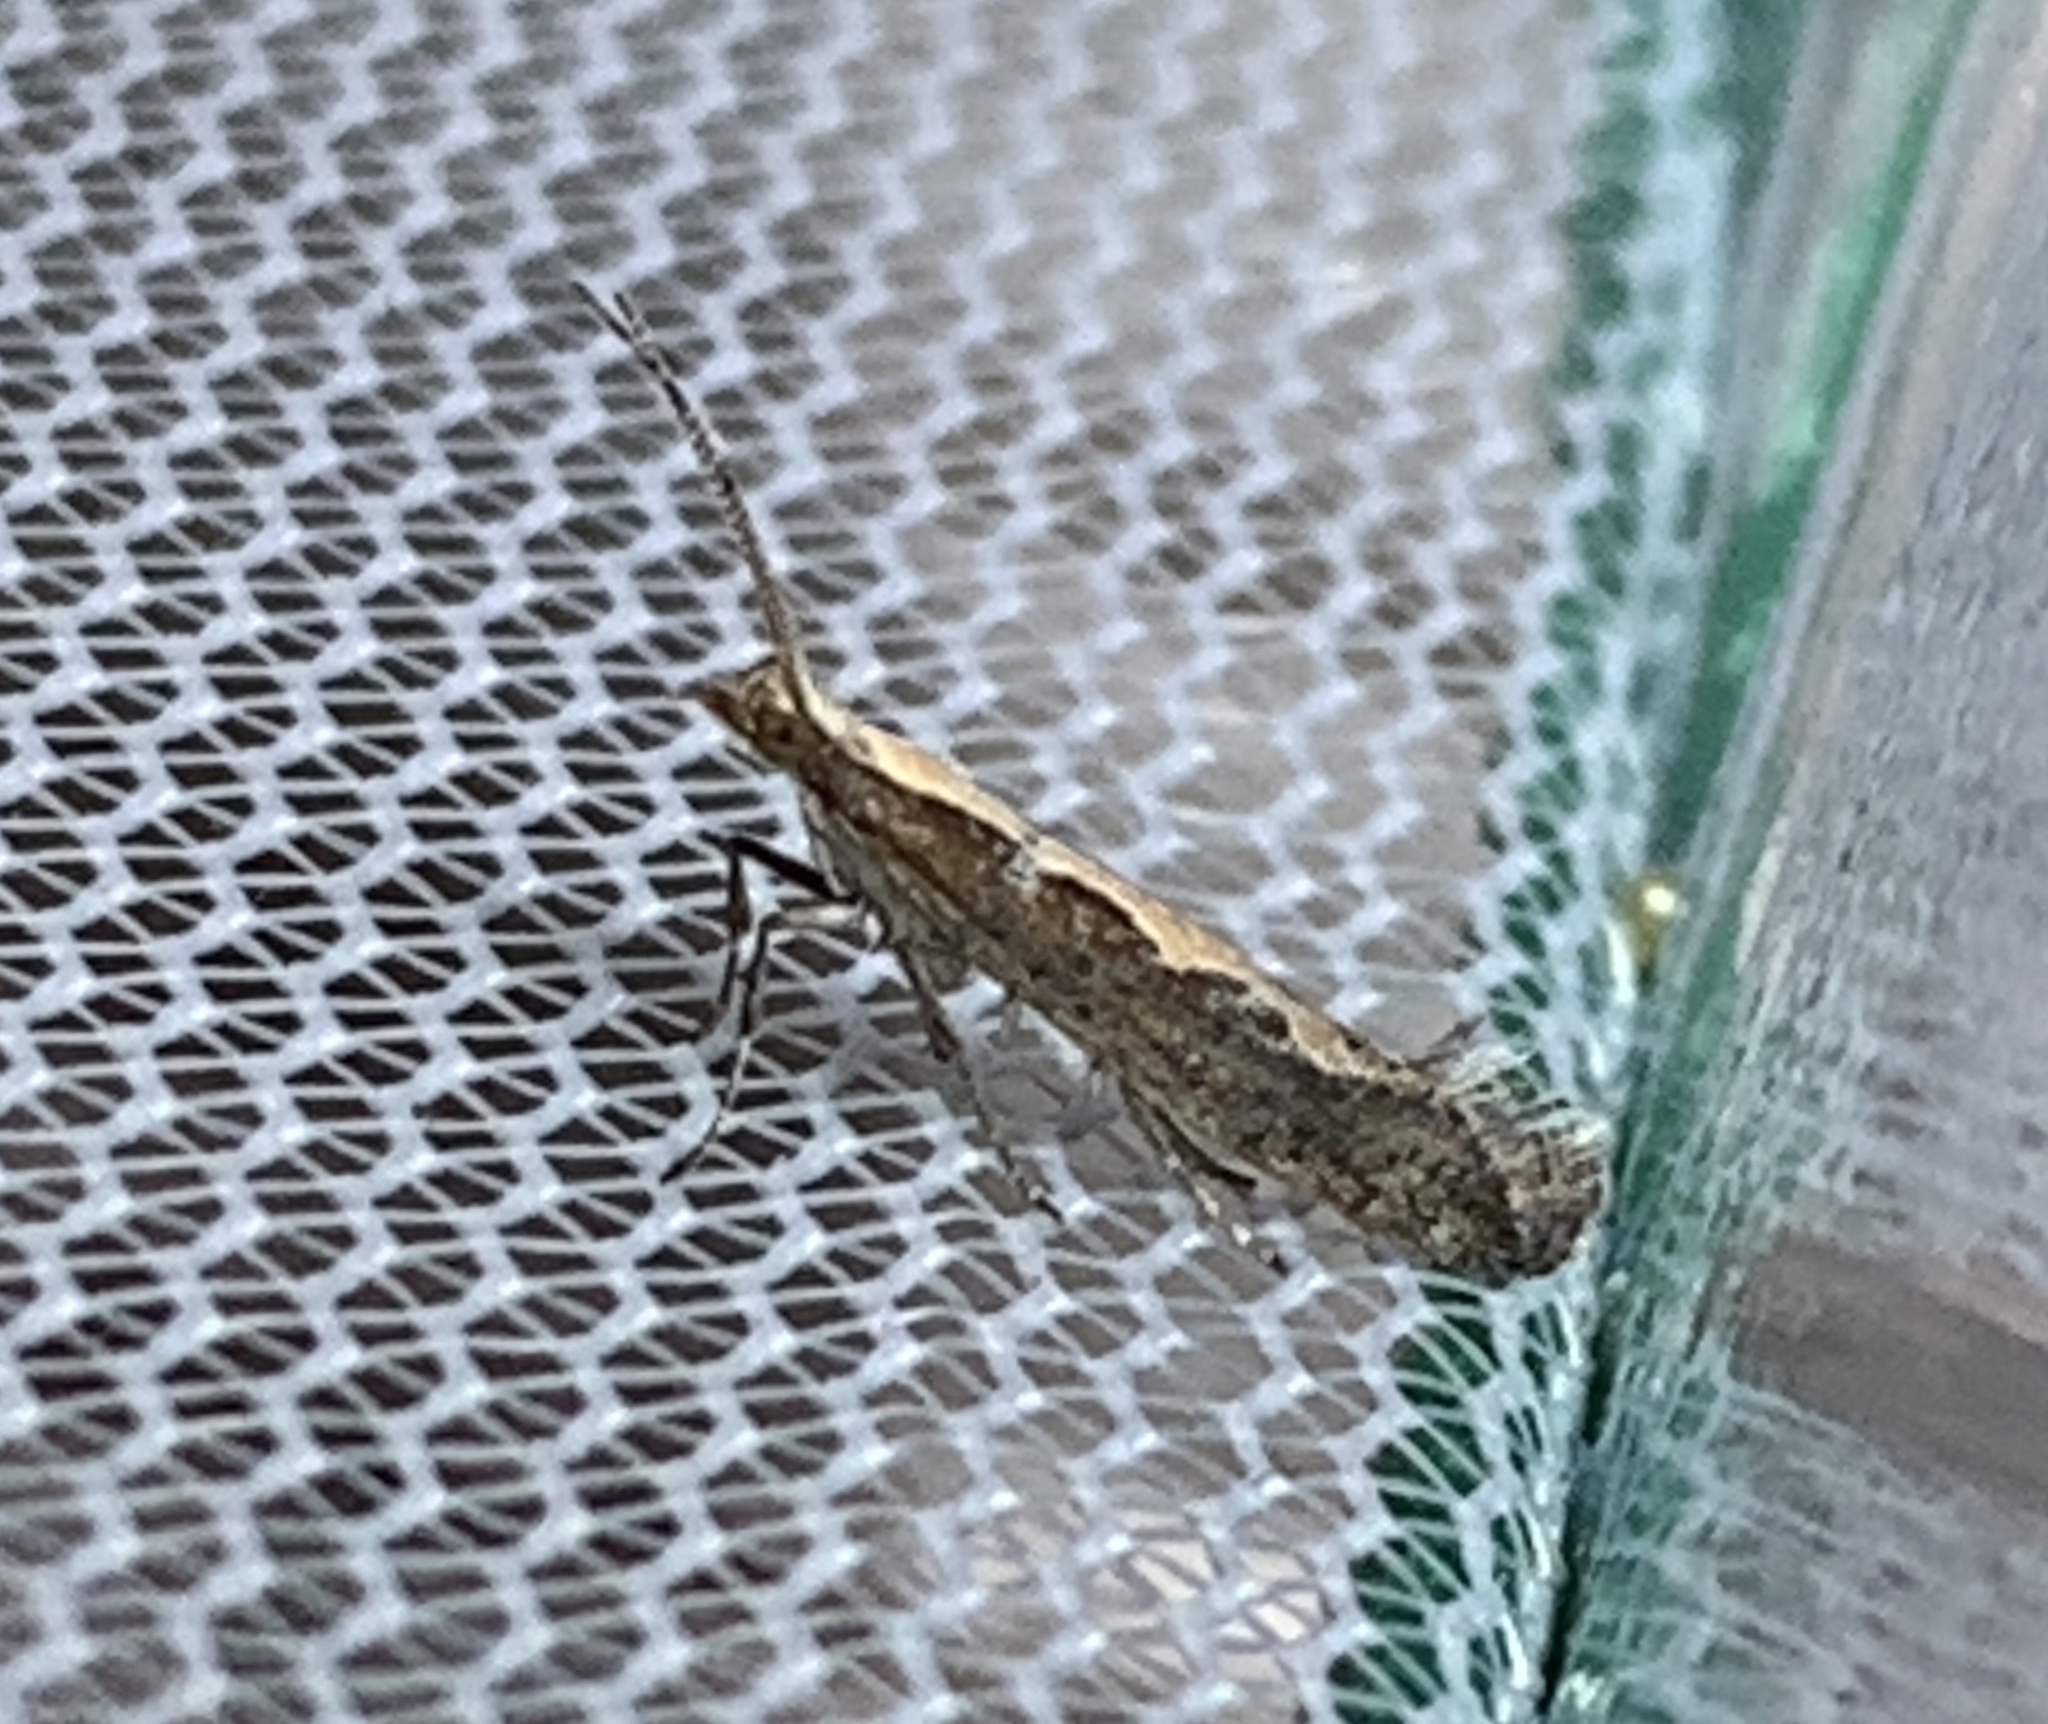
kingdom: Animalia
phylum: Arthropoda
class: Insecta
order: Lepidoptera
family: Plutellidae
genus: Plutella
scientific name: Plutella xylostella
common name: Diamond-back moth
